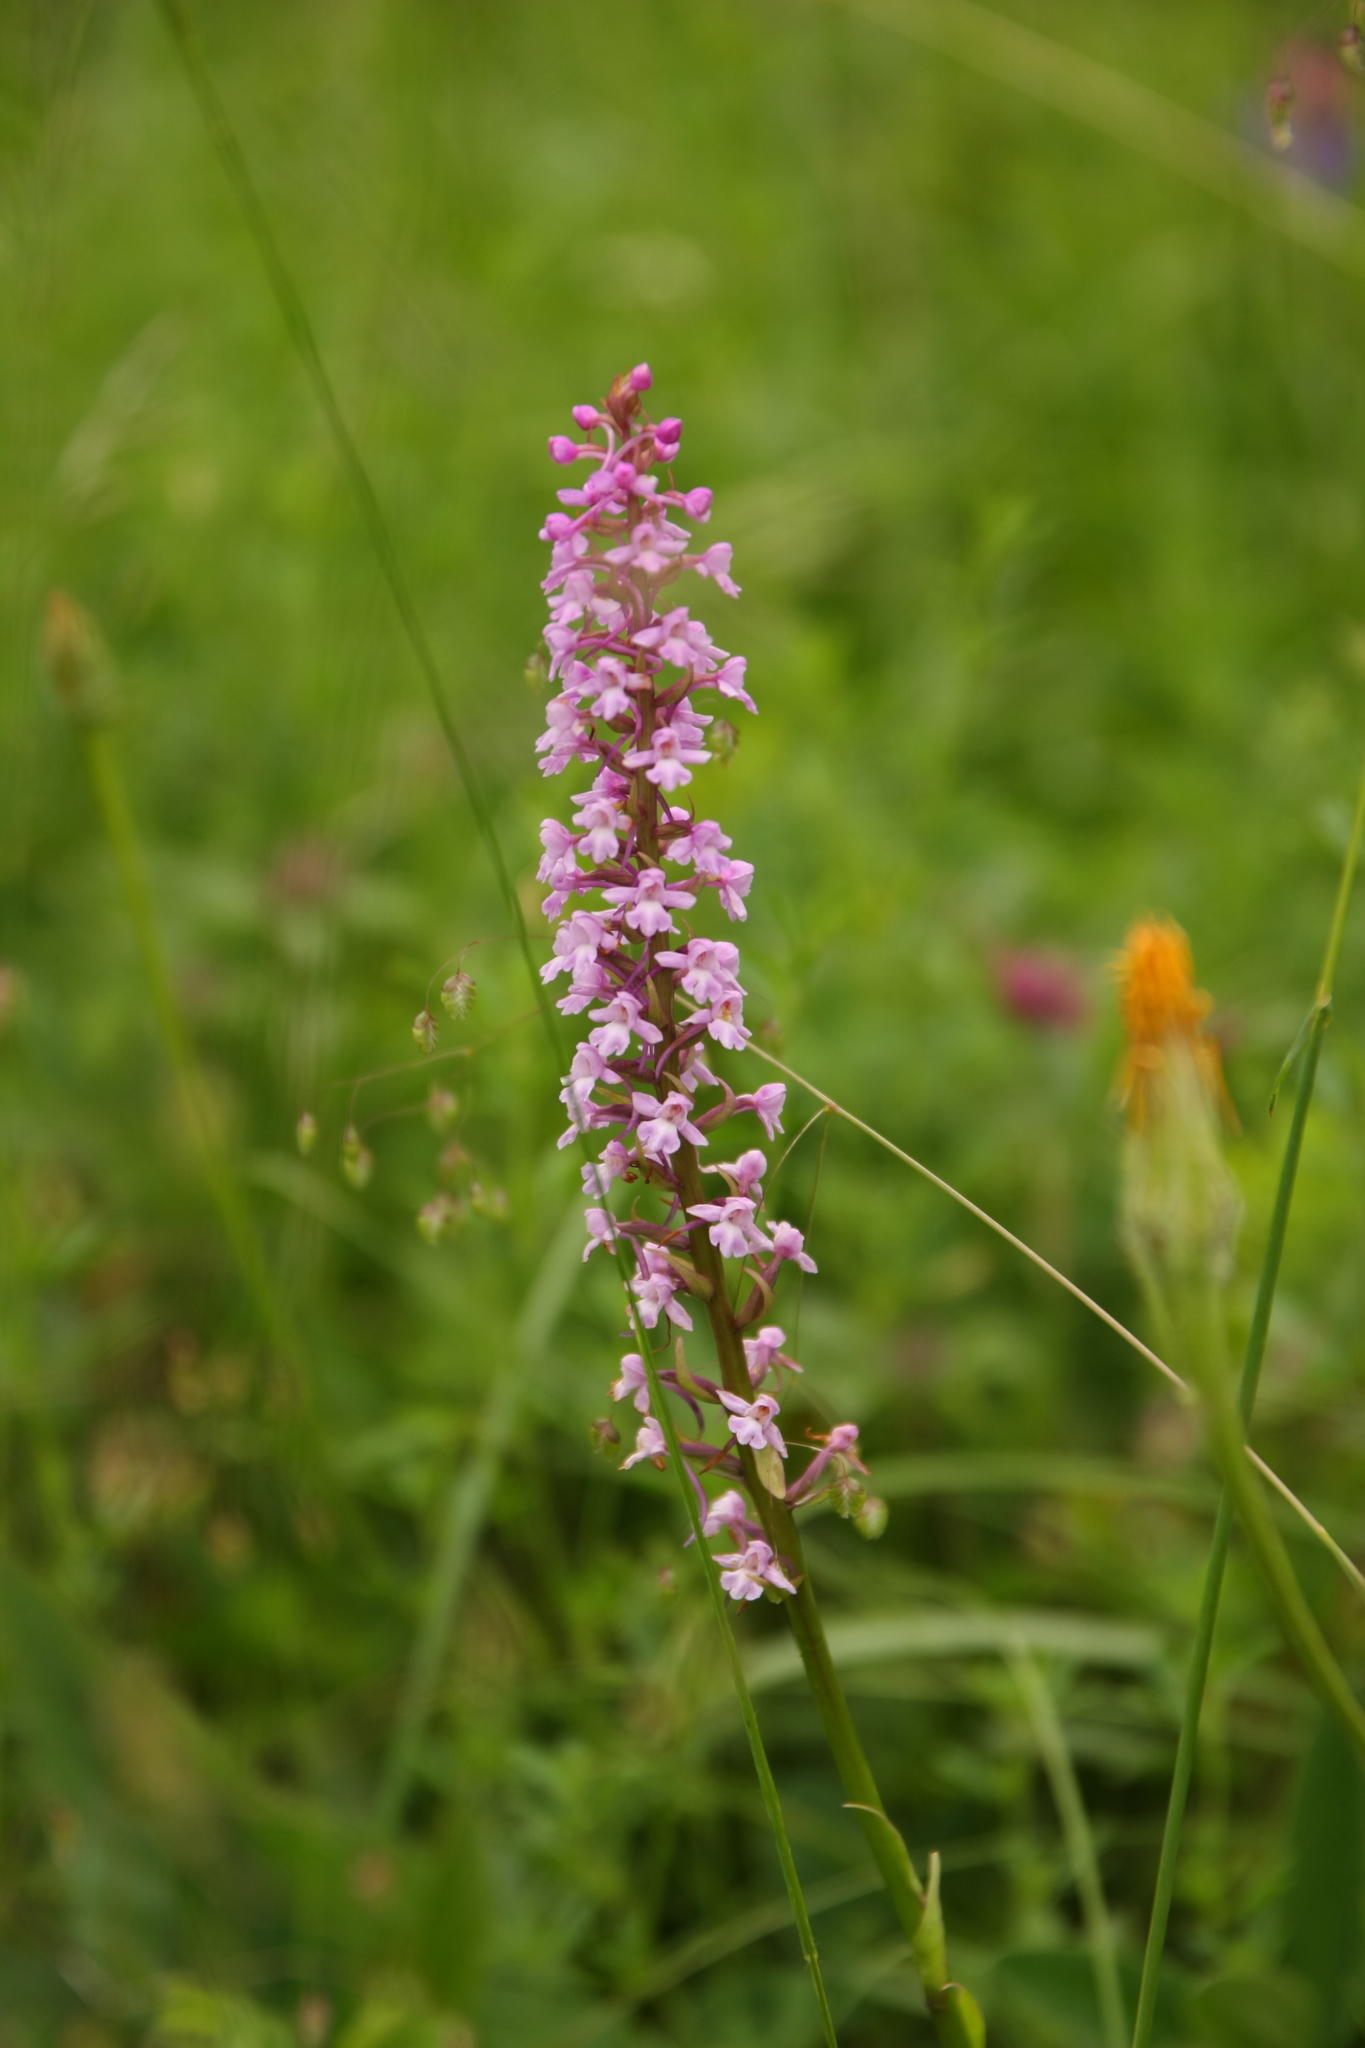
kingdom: Plantae
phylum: Tracheophyta
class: Liliopsida
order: Asparagales
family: Orchidaceae
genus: Gymnadenia
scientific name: Gymnadenia conopsea
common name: Fragrant orchid
